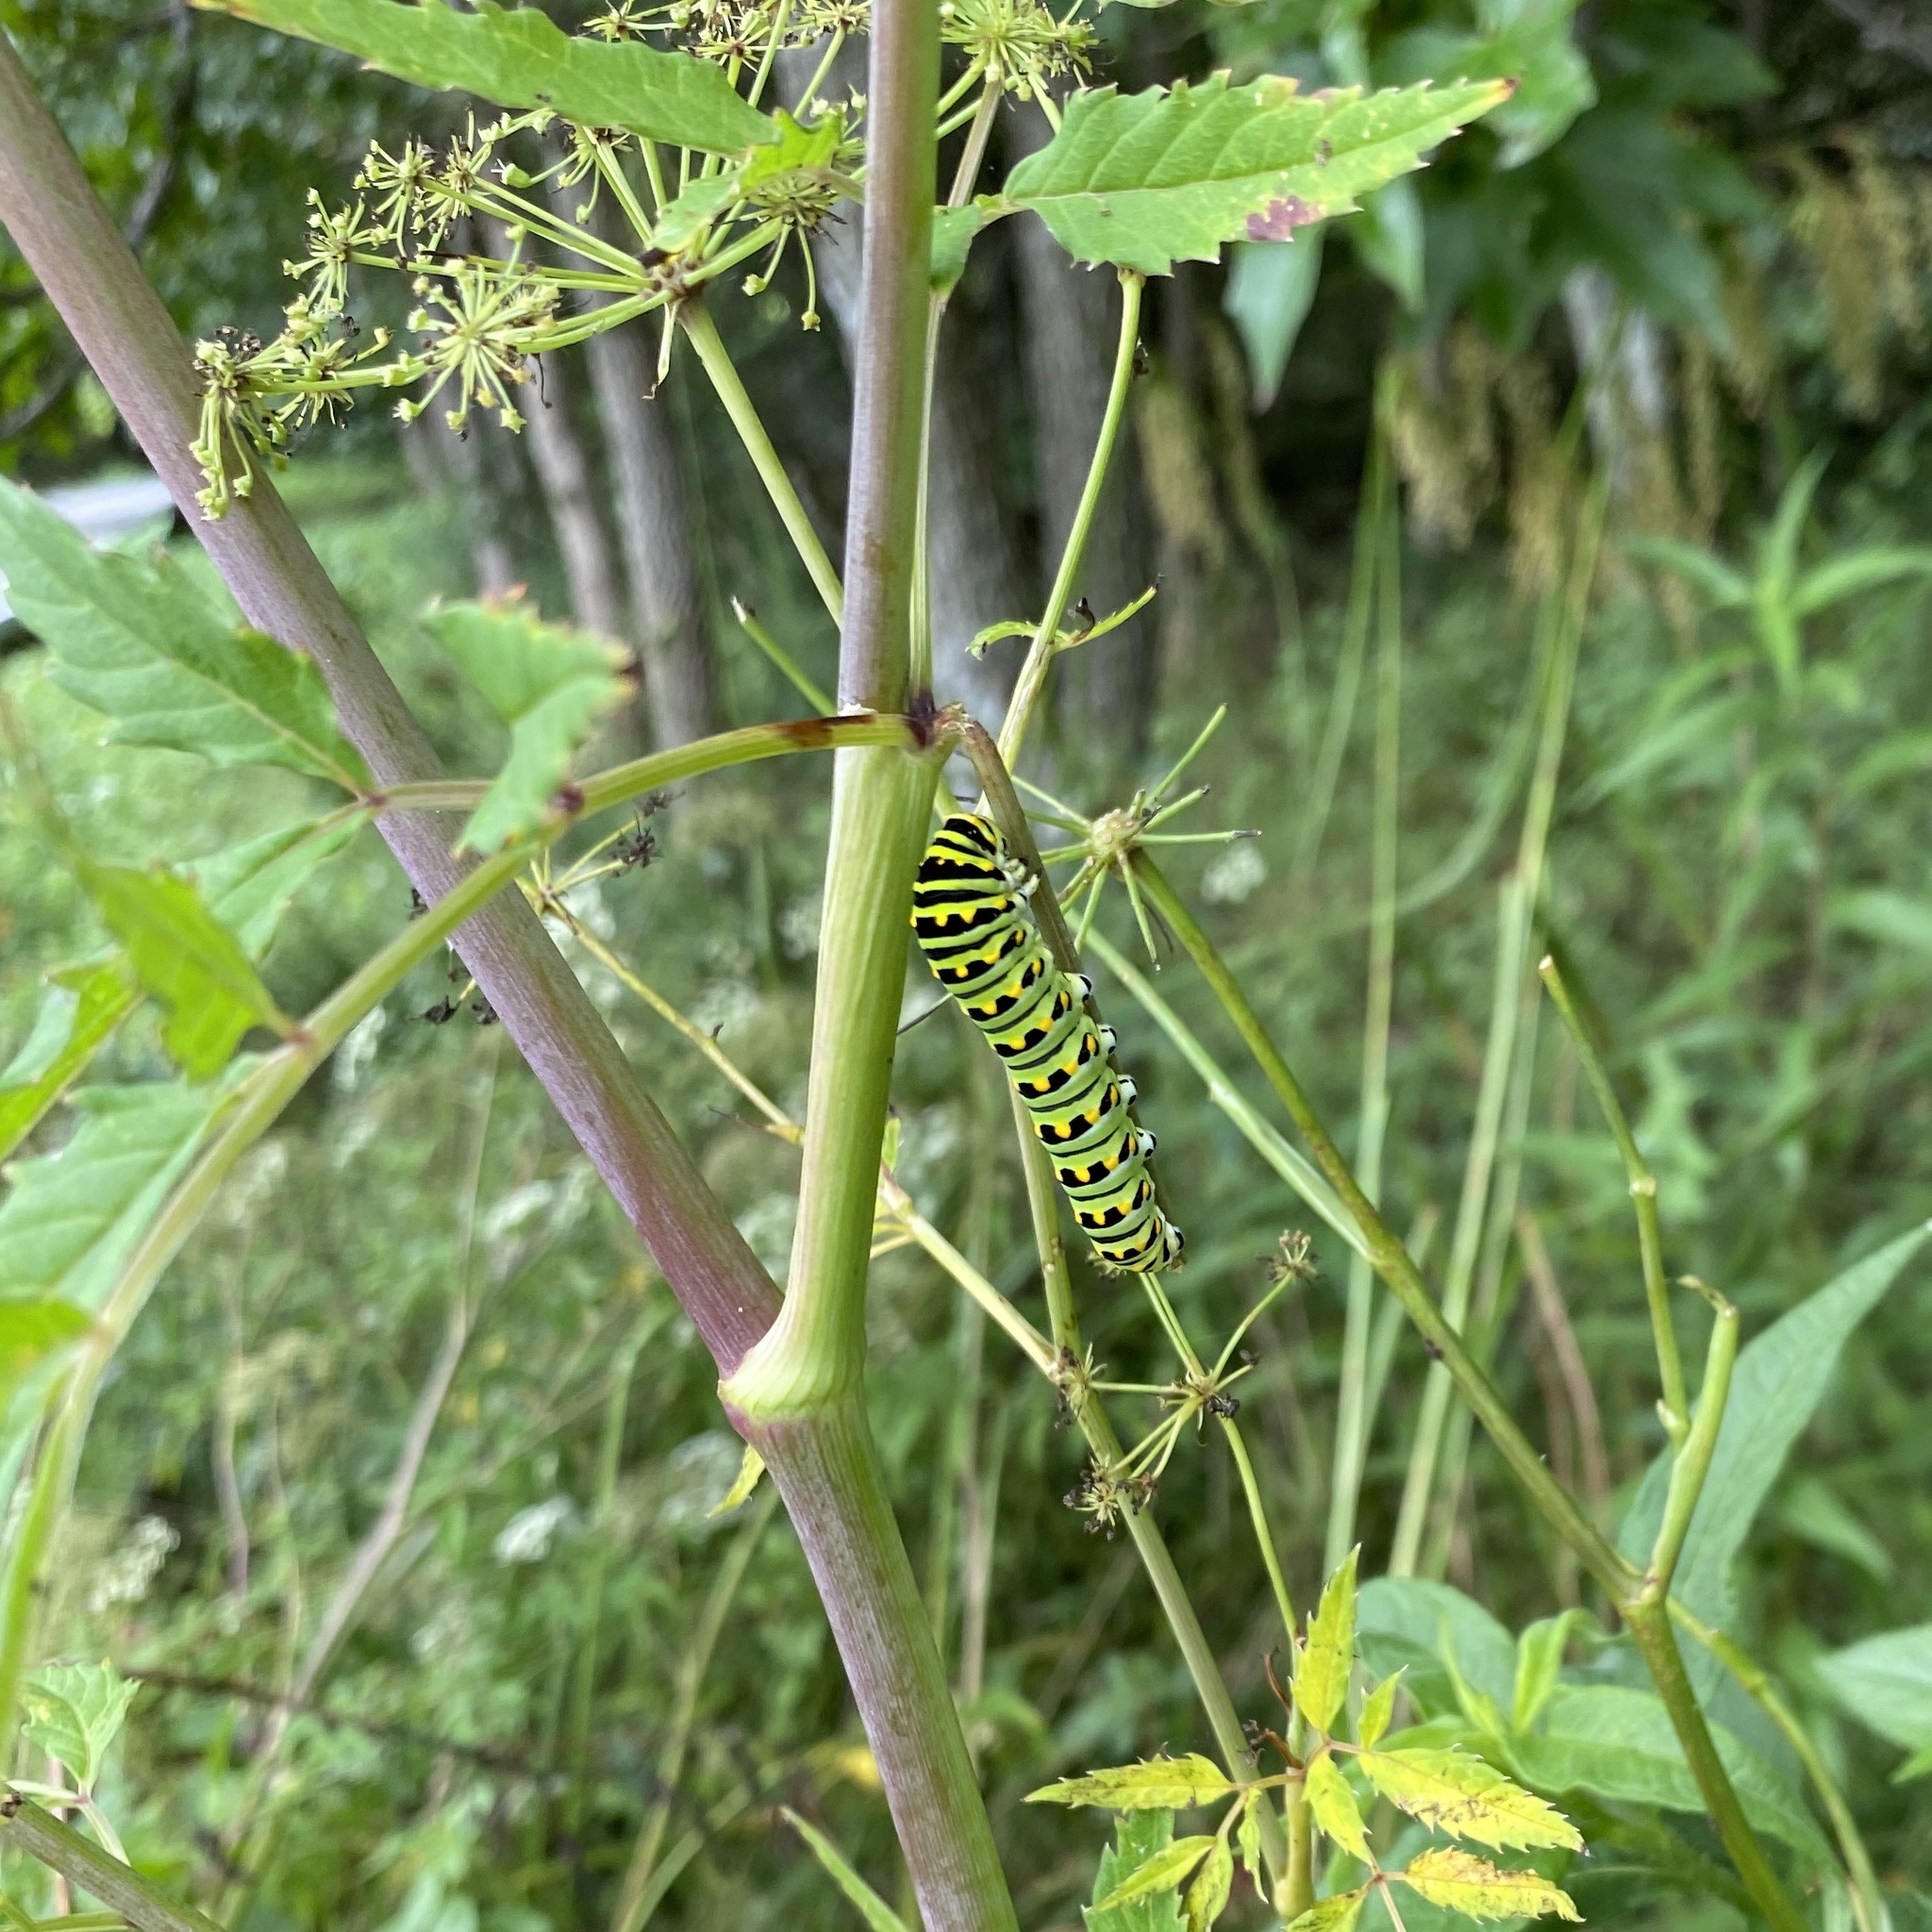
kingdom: Animalia
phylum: Arthropoda
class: Insecta
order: Lepidoptera
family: Papilionidae
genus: Papilio
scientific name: Papilio polyxenes
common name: Black swallowtail
